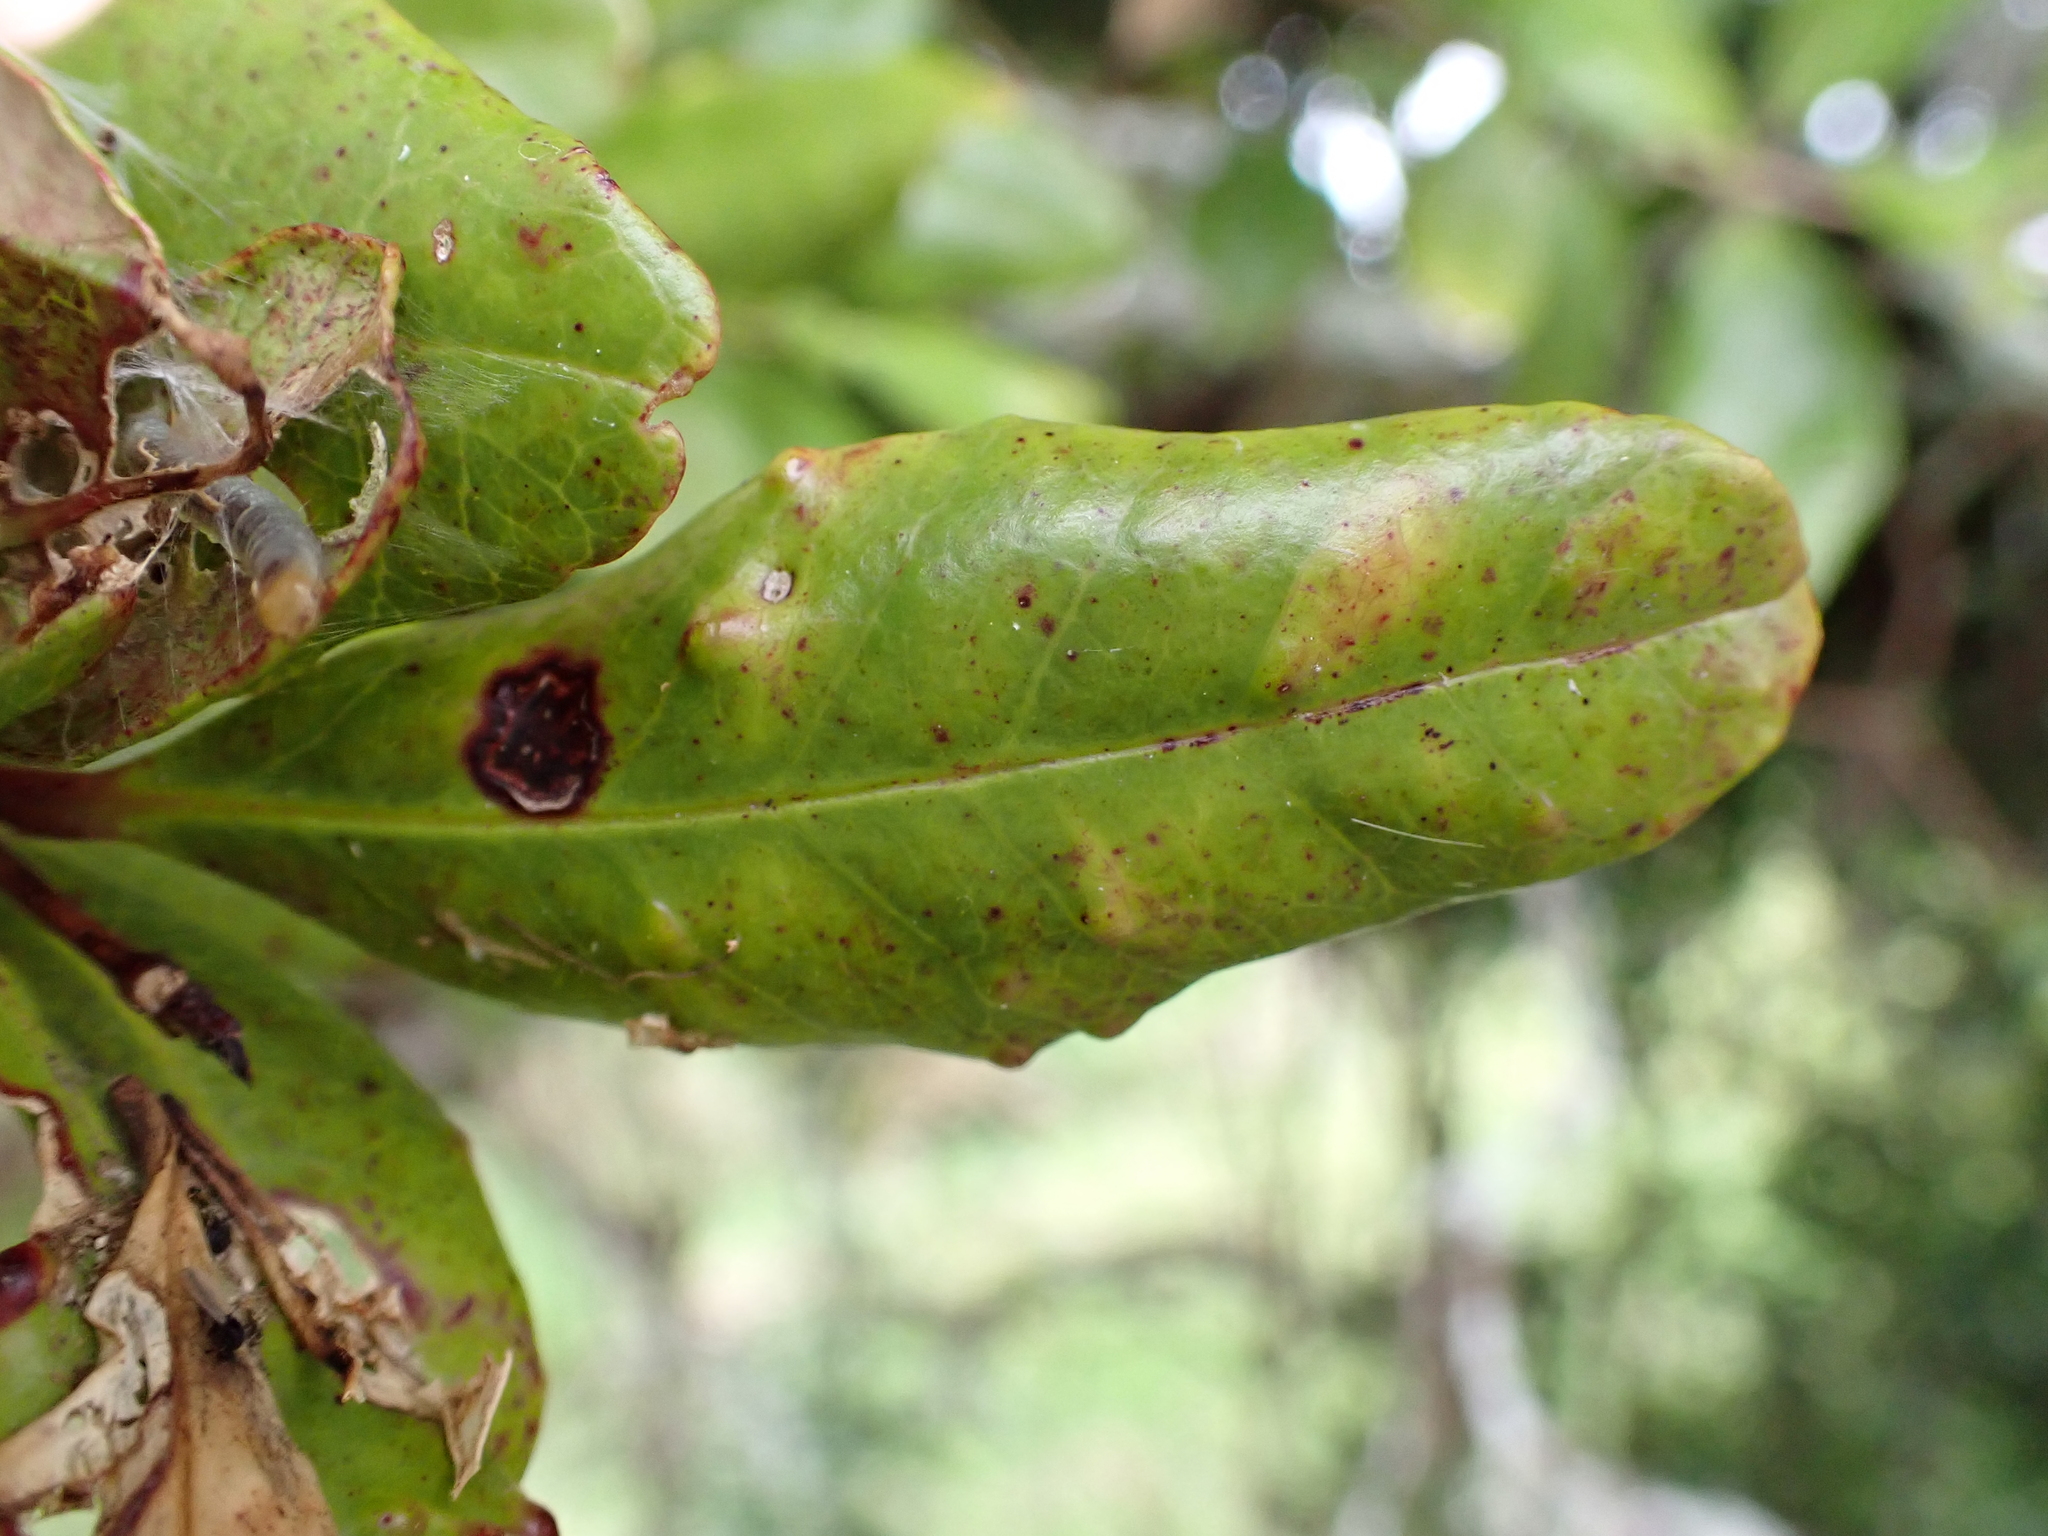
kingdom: Plantae
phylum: Tracheophyta
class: Magnoliopsida
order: Myrtales
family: Myrtaceae
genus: Syzygium
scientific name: Syzygium maire
